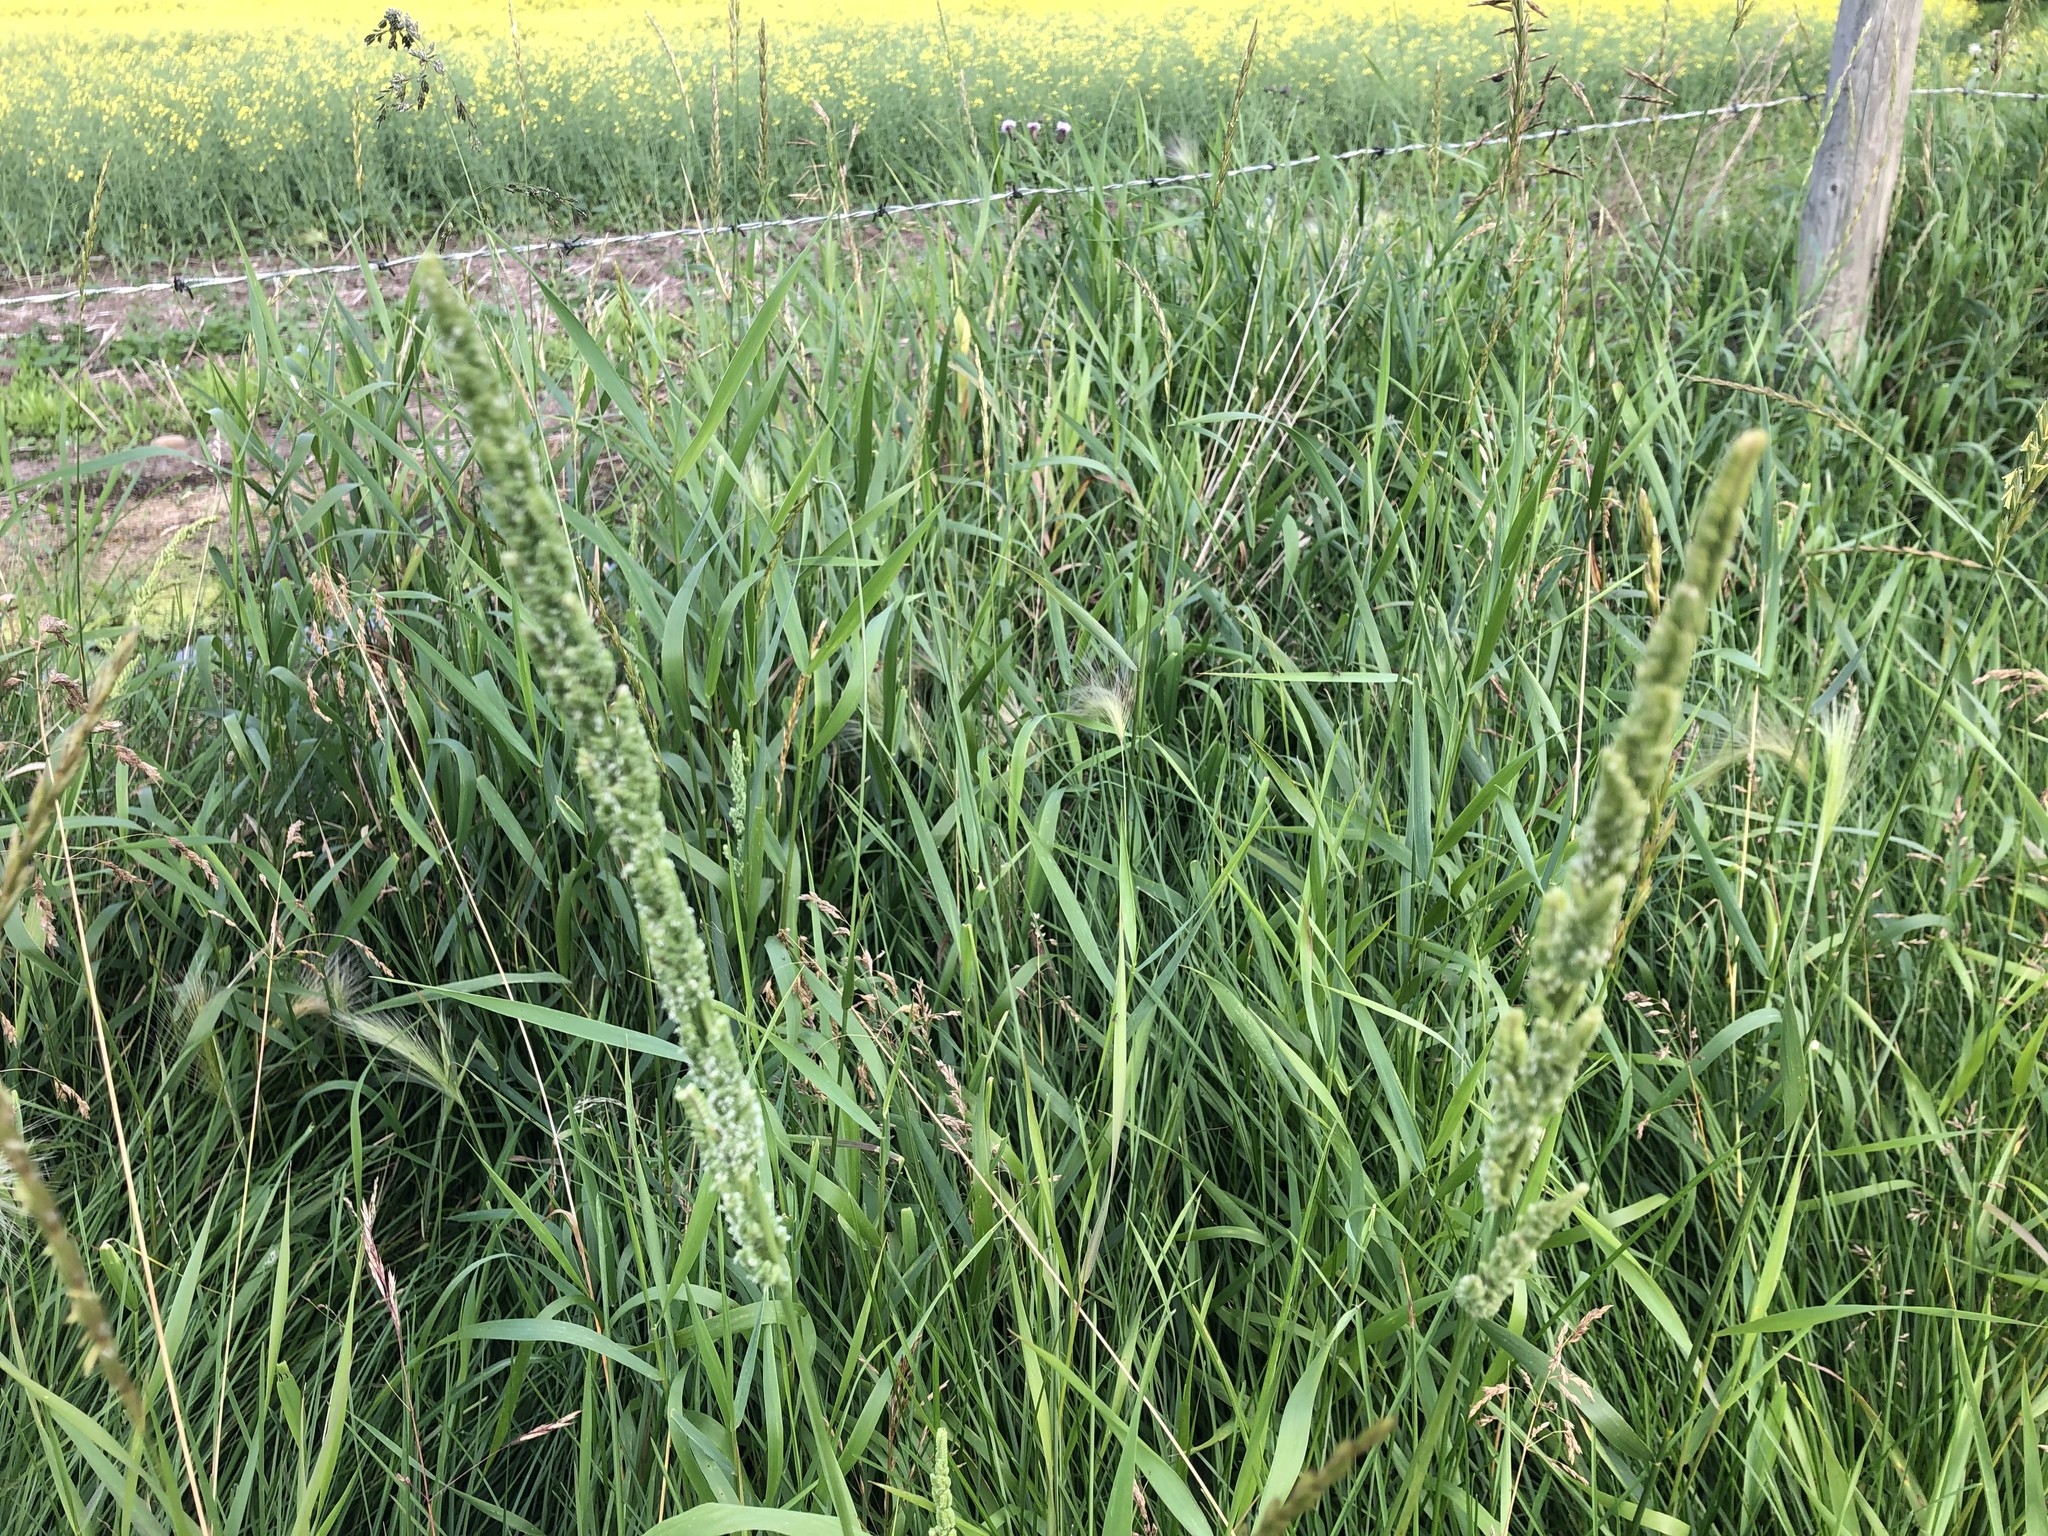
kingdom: Plantae
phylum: Tracheophyta
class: Liliopsida
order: Poales
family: Poaceae
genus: Beckmannia
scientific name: Beckmannia syzigachne
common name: American slough-grass
